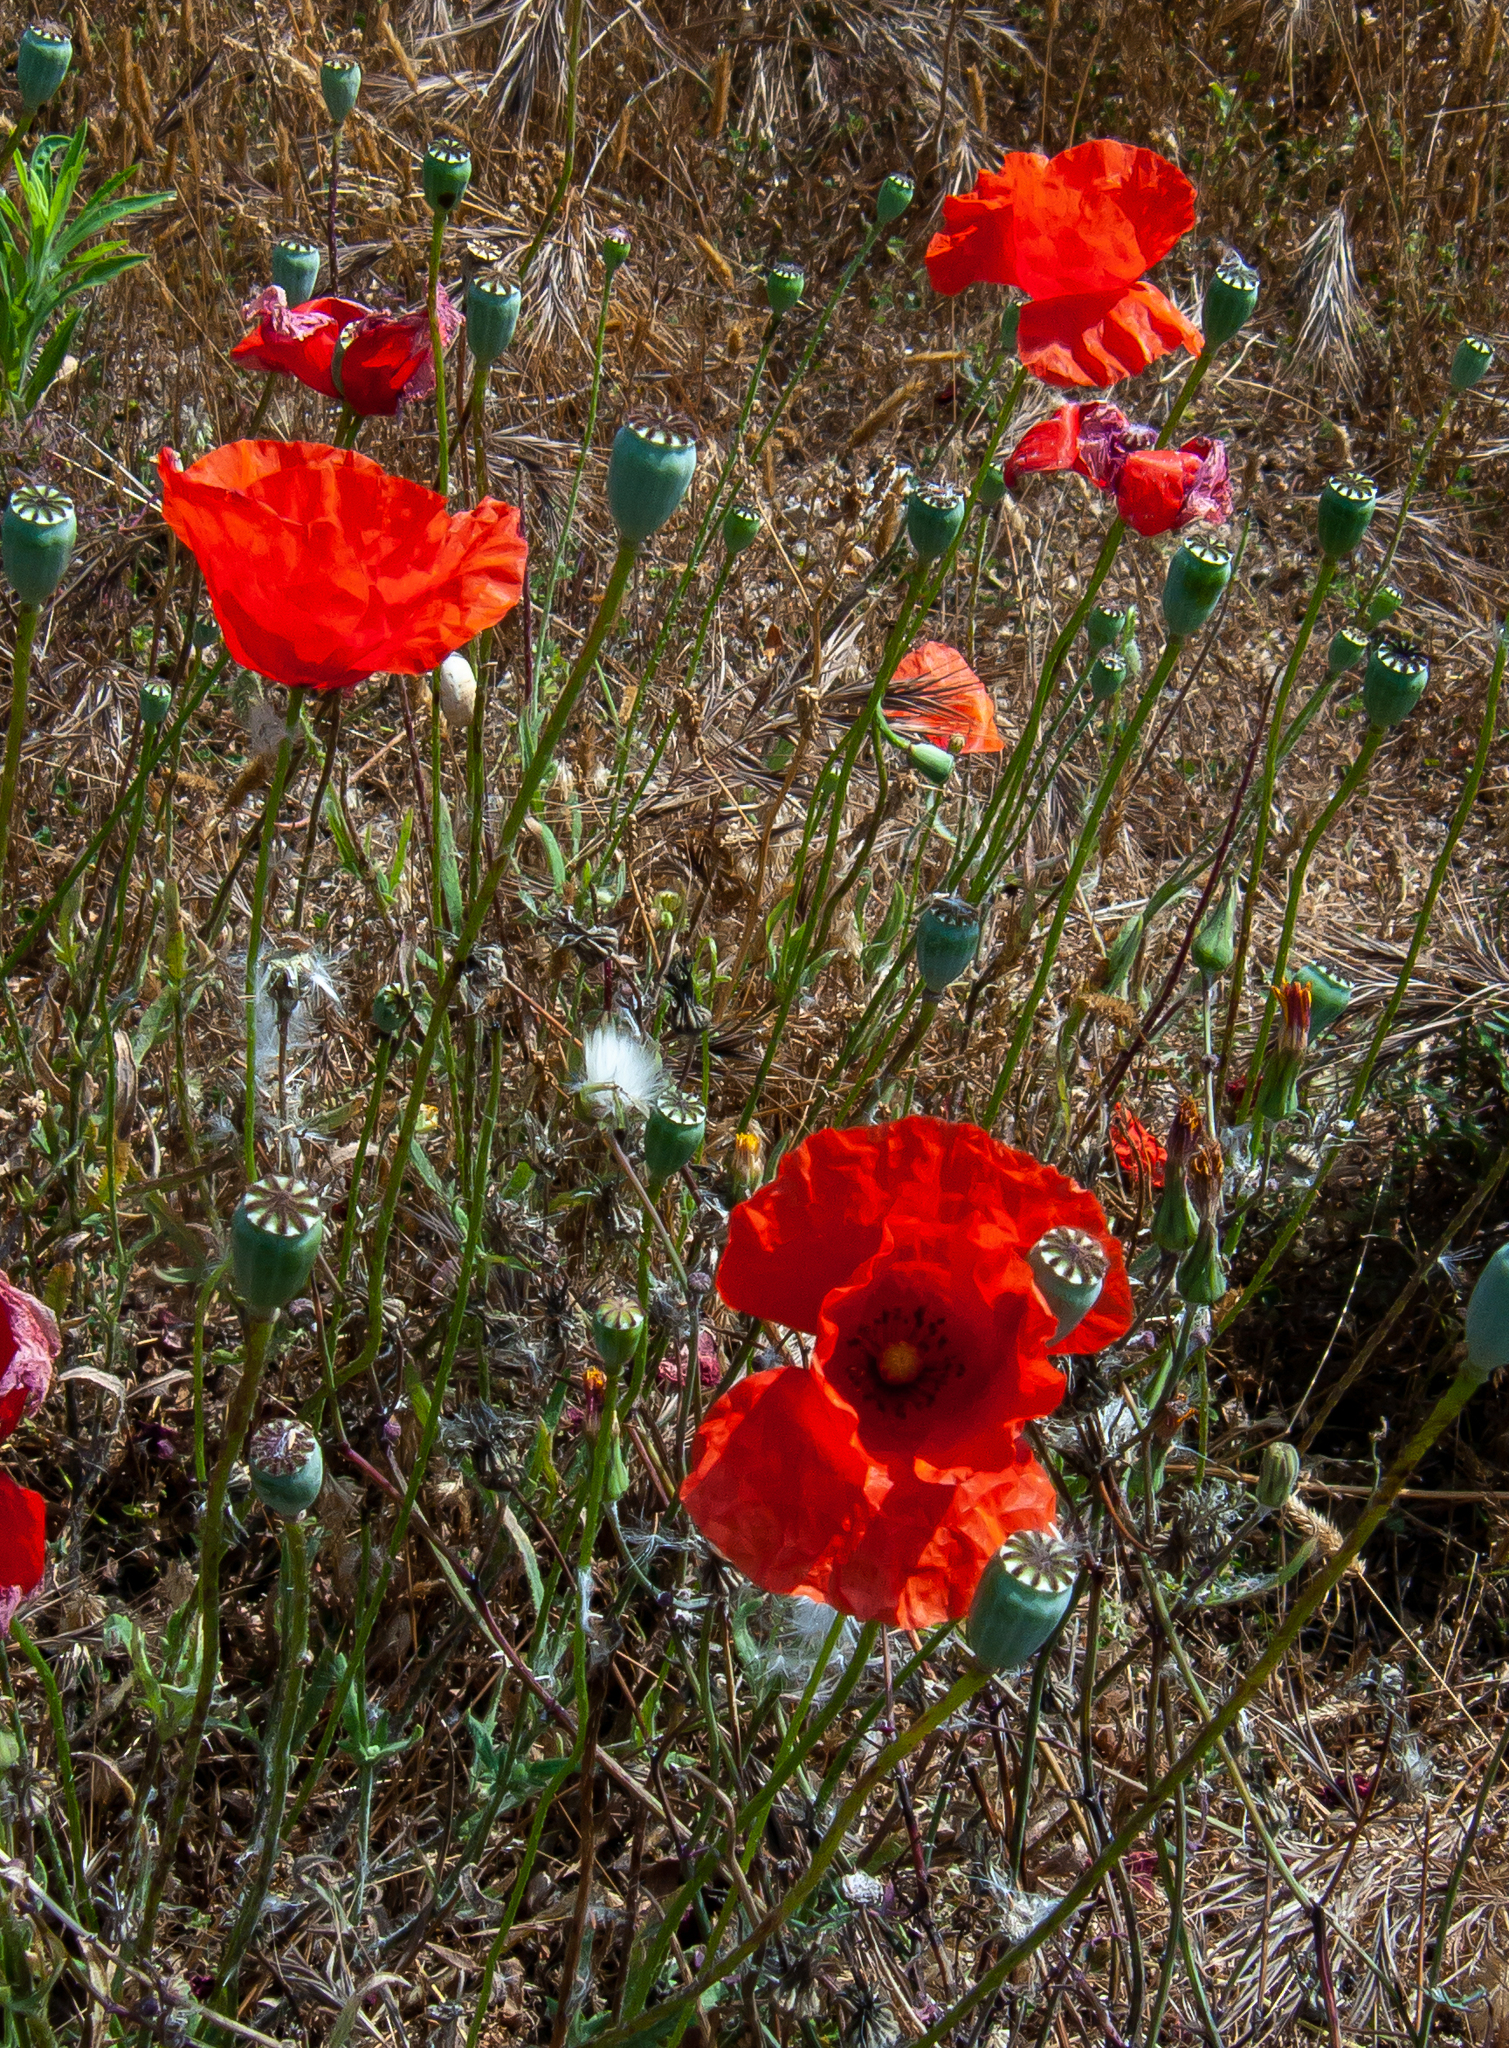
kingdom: Plantae
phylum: Tracheophyta
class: Magnoliopsida
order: Ranunculales
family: Papaveraceae
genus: Papaver
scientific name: Papaver rhoeas
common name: Corn poppy
